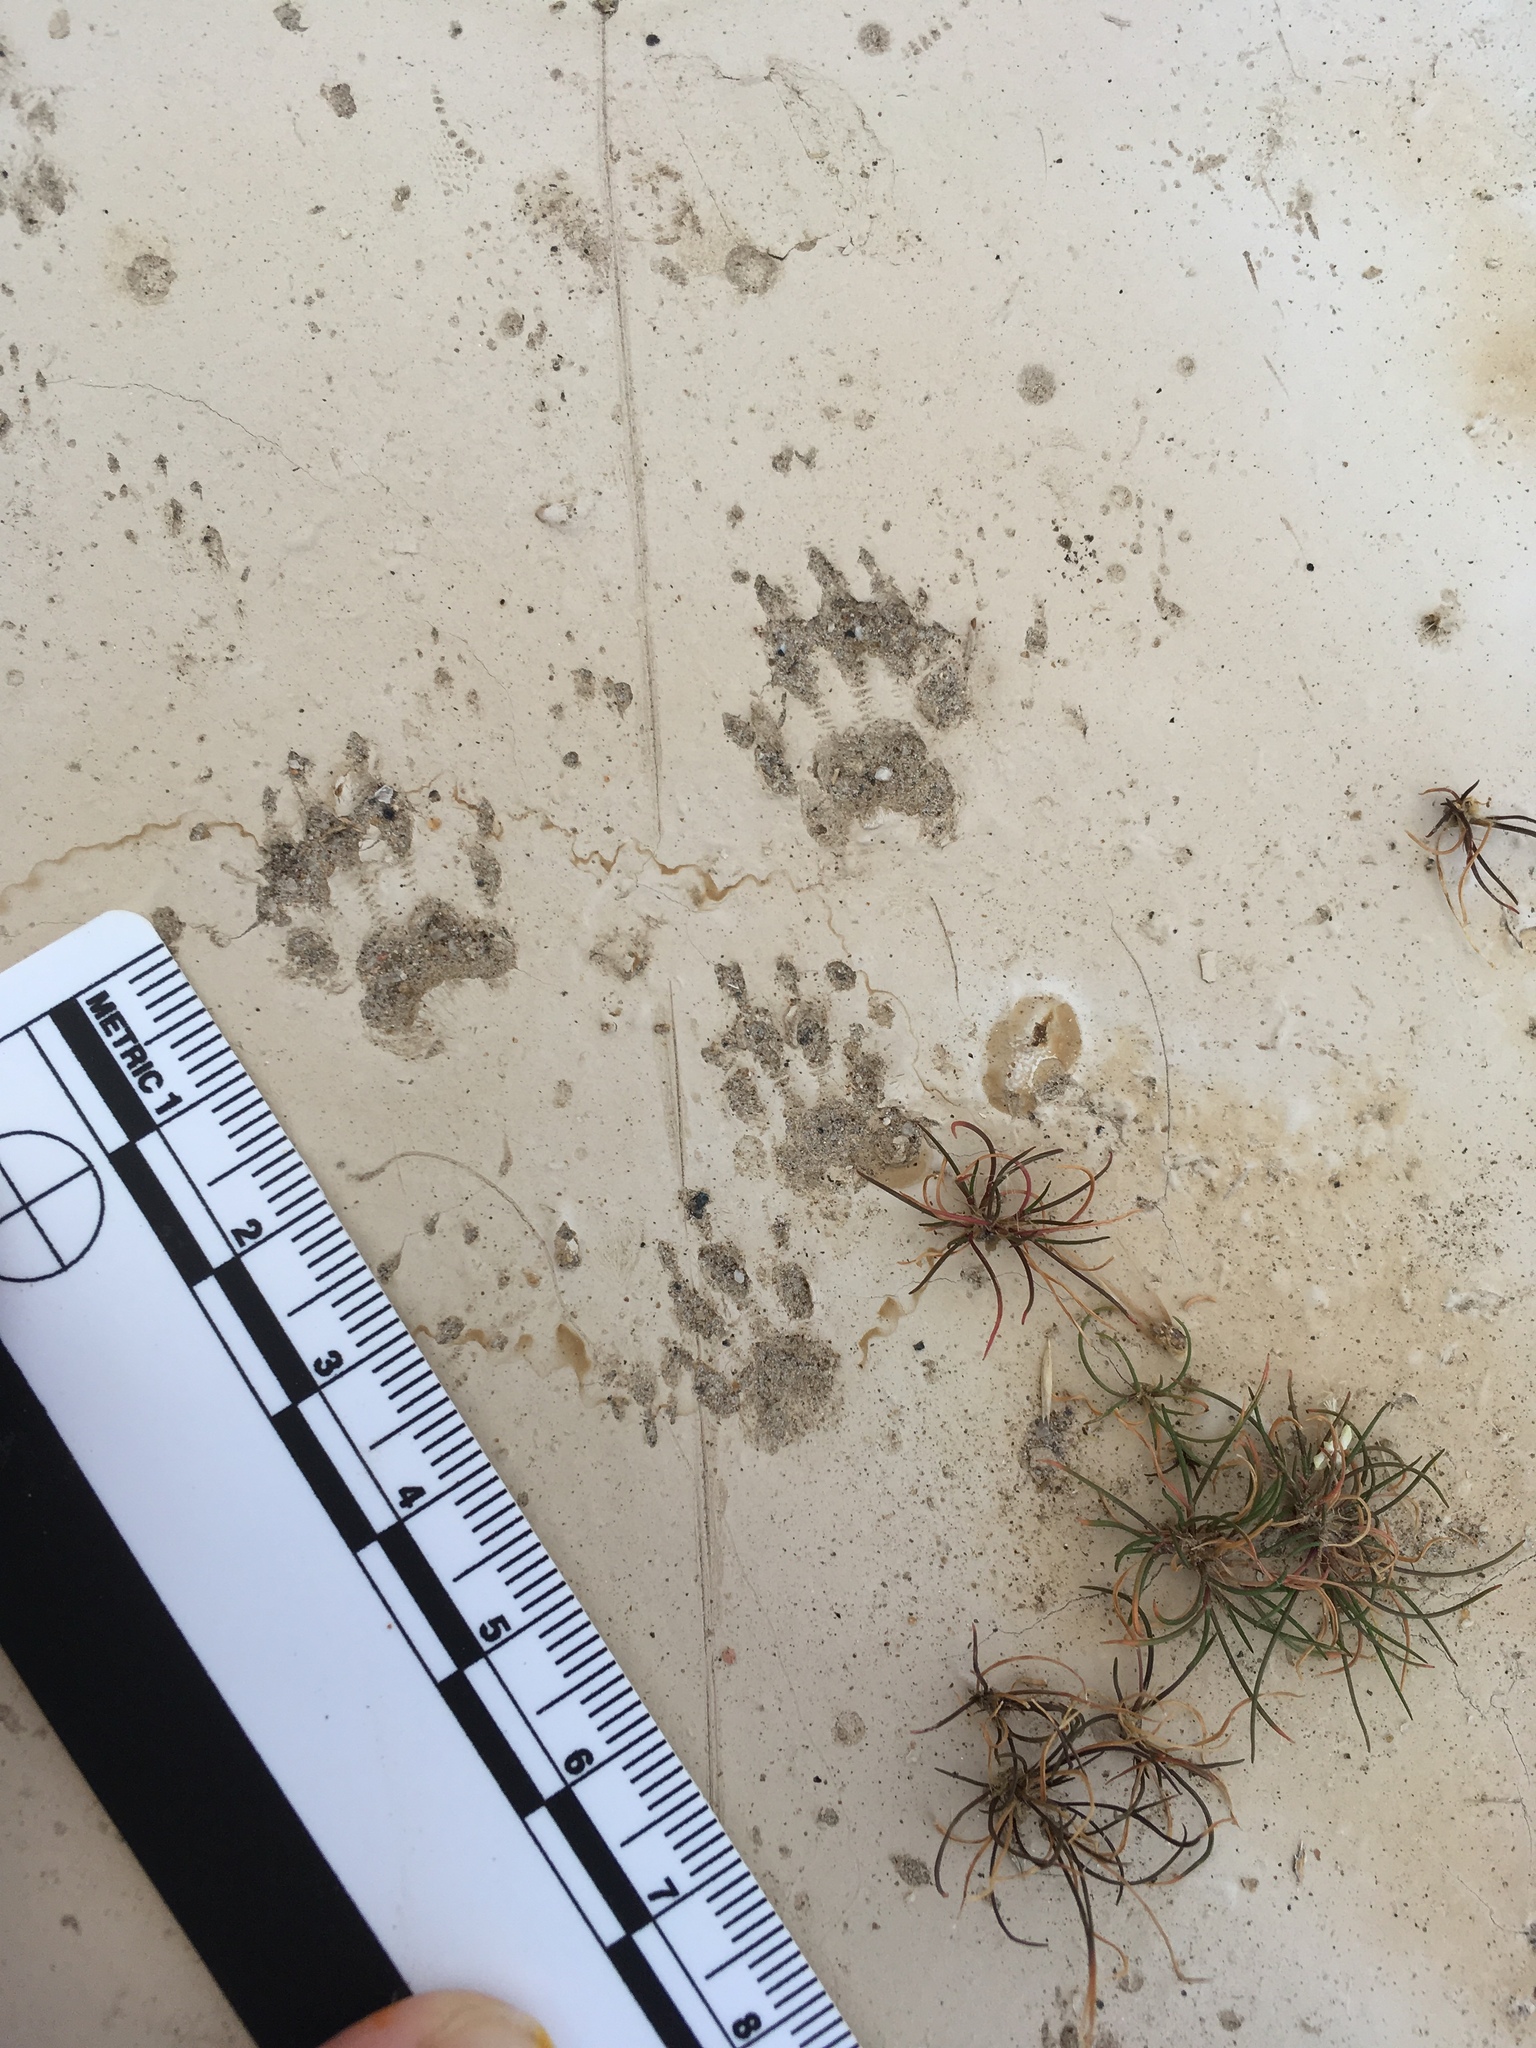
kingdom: Animalia
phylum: Chordata
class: Mammalia
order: Rodentia
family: Sciuridae
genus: Ammospermophilus
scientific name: Ammospermophilus leucurus
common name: White-tailed antelope squirrel
